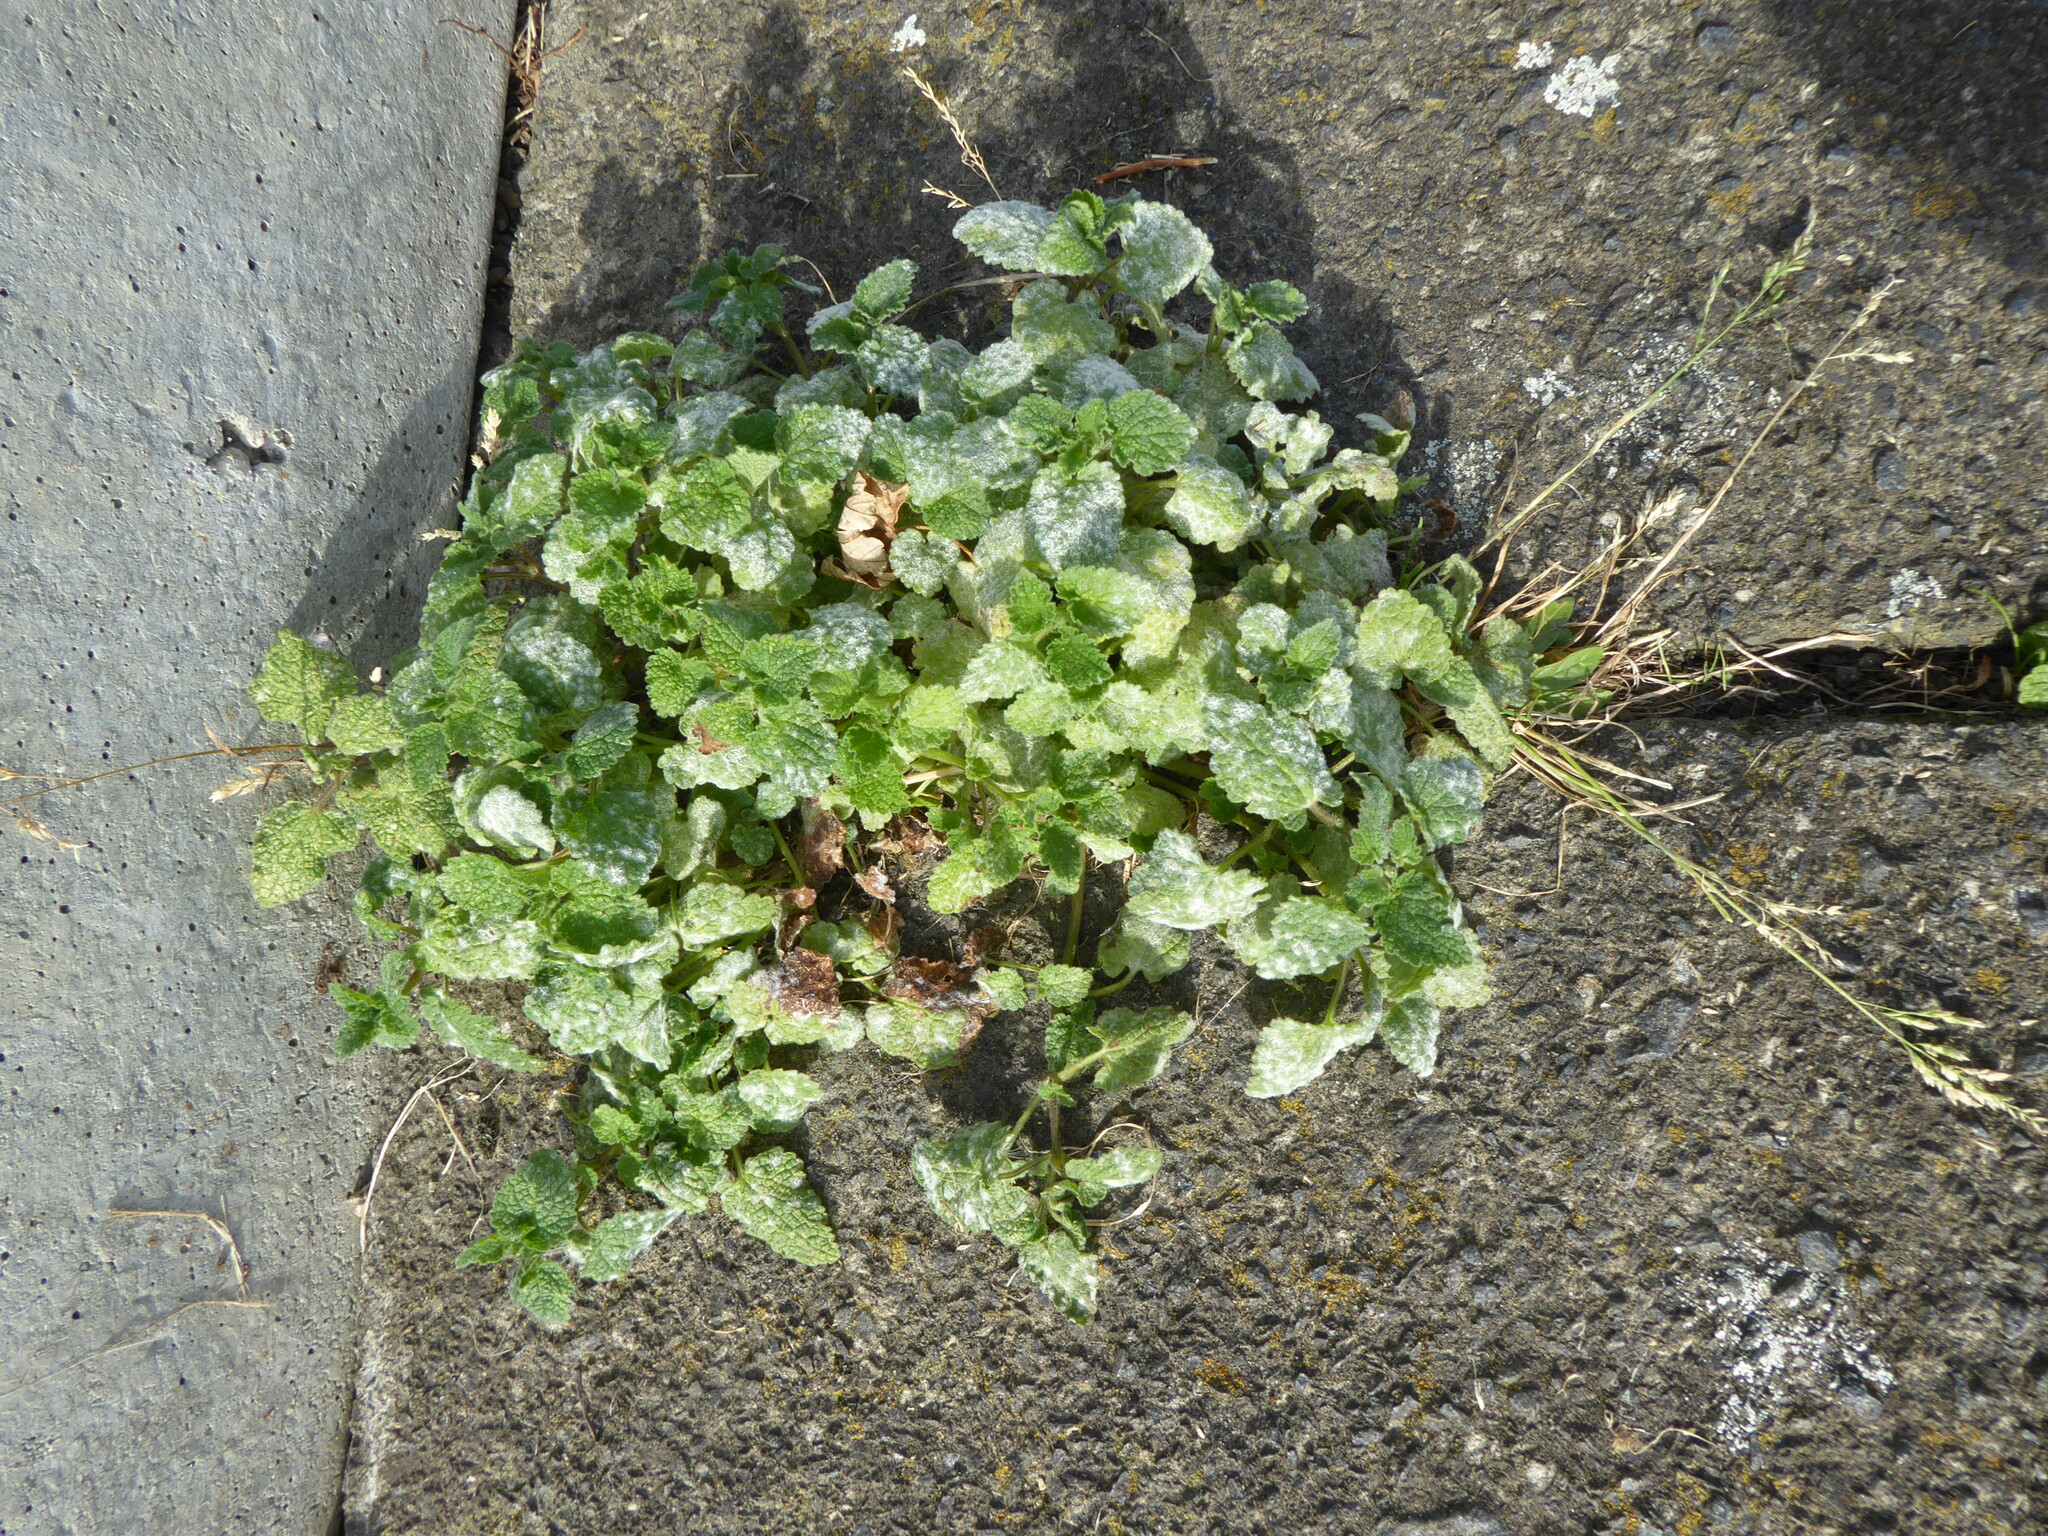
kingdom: Plantae
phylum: Tracheophyta
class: Magnoliopsida
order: Lamiales
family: Lamiaceae
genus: Ballota
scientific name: Ballota nigra
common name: Black horehound
